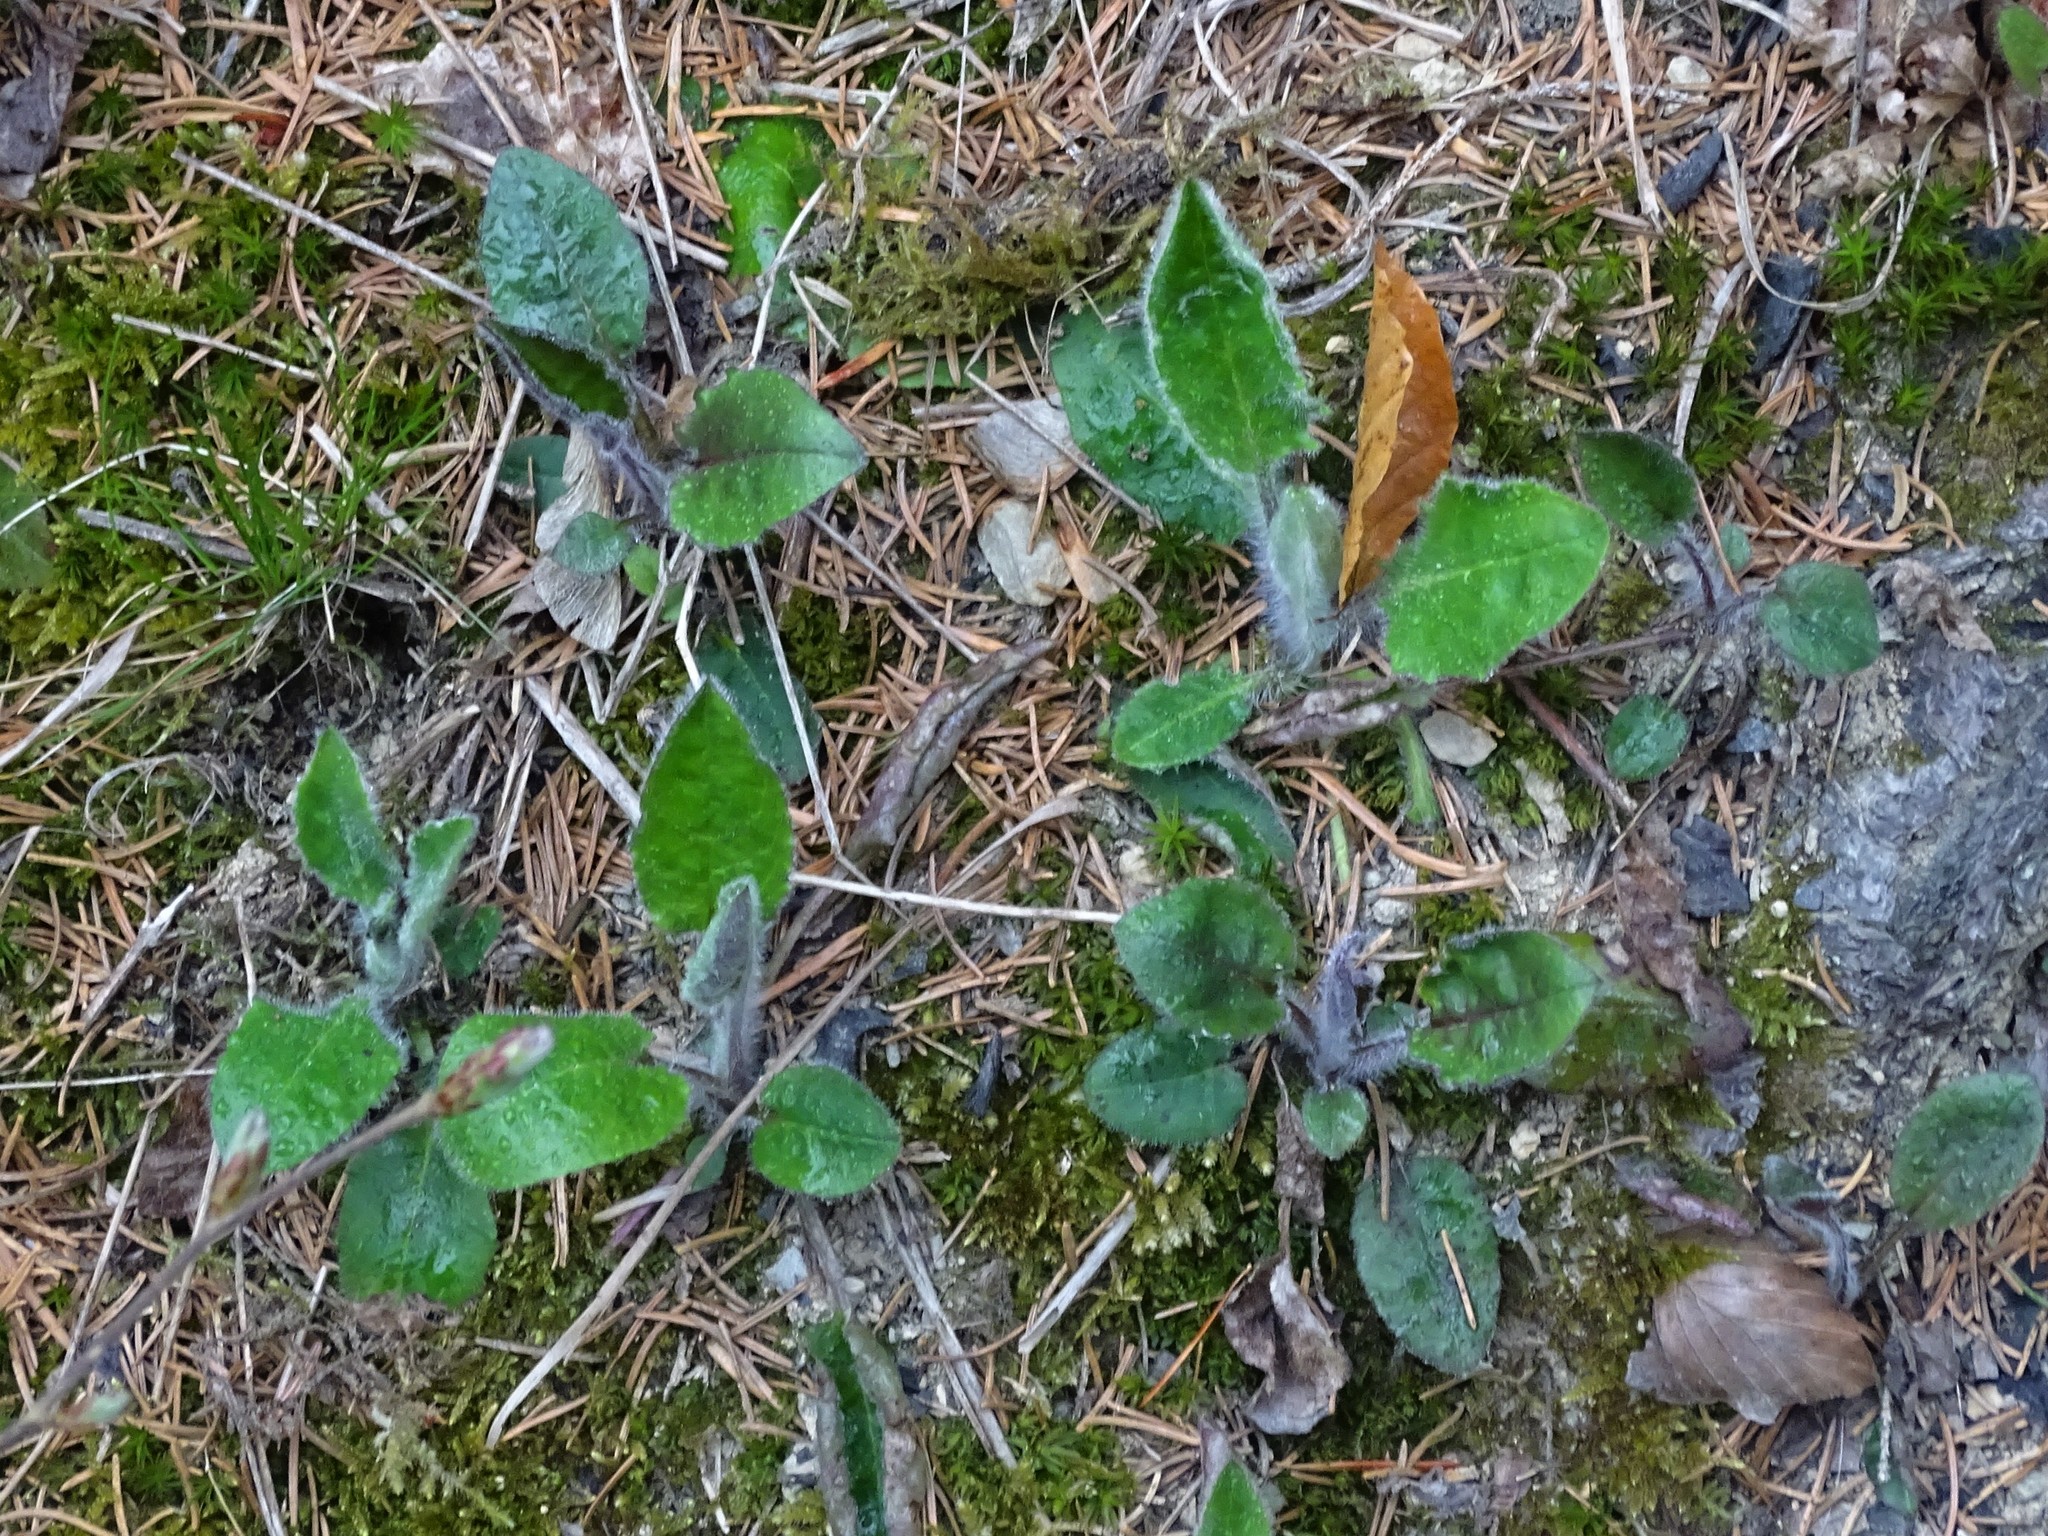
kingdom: Plantae
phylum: Tracheophyta
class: Magnoliopsida
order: Asterales
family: Asteraceae
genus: Hieracium
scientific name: Hieracium murorum
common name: Wall hawkweed
